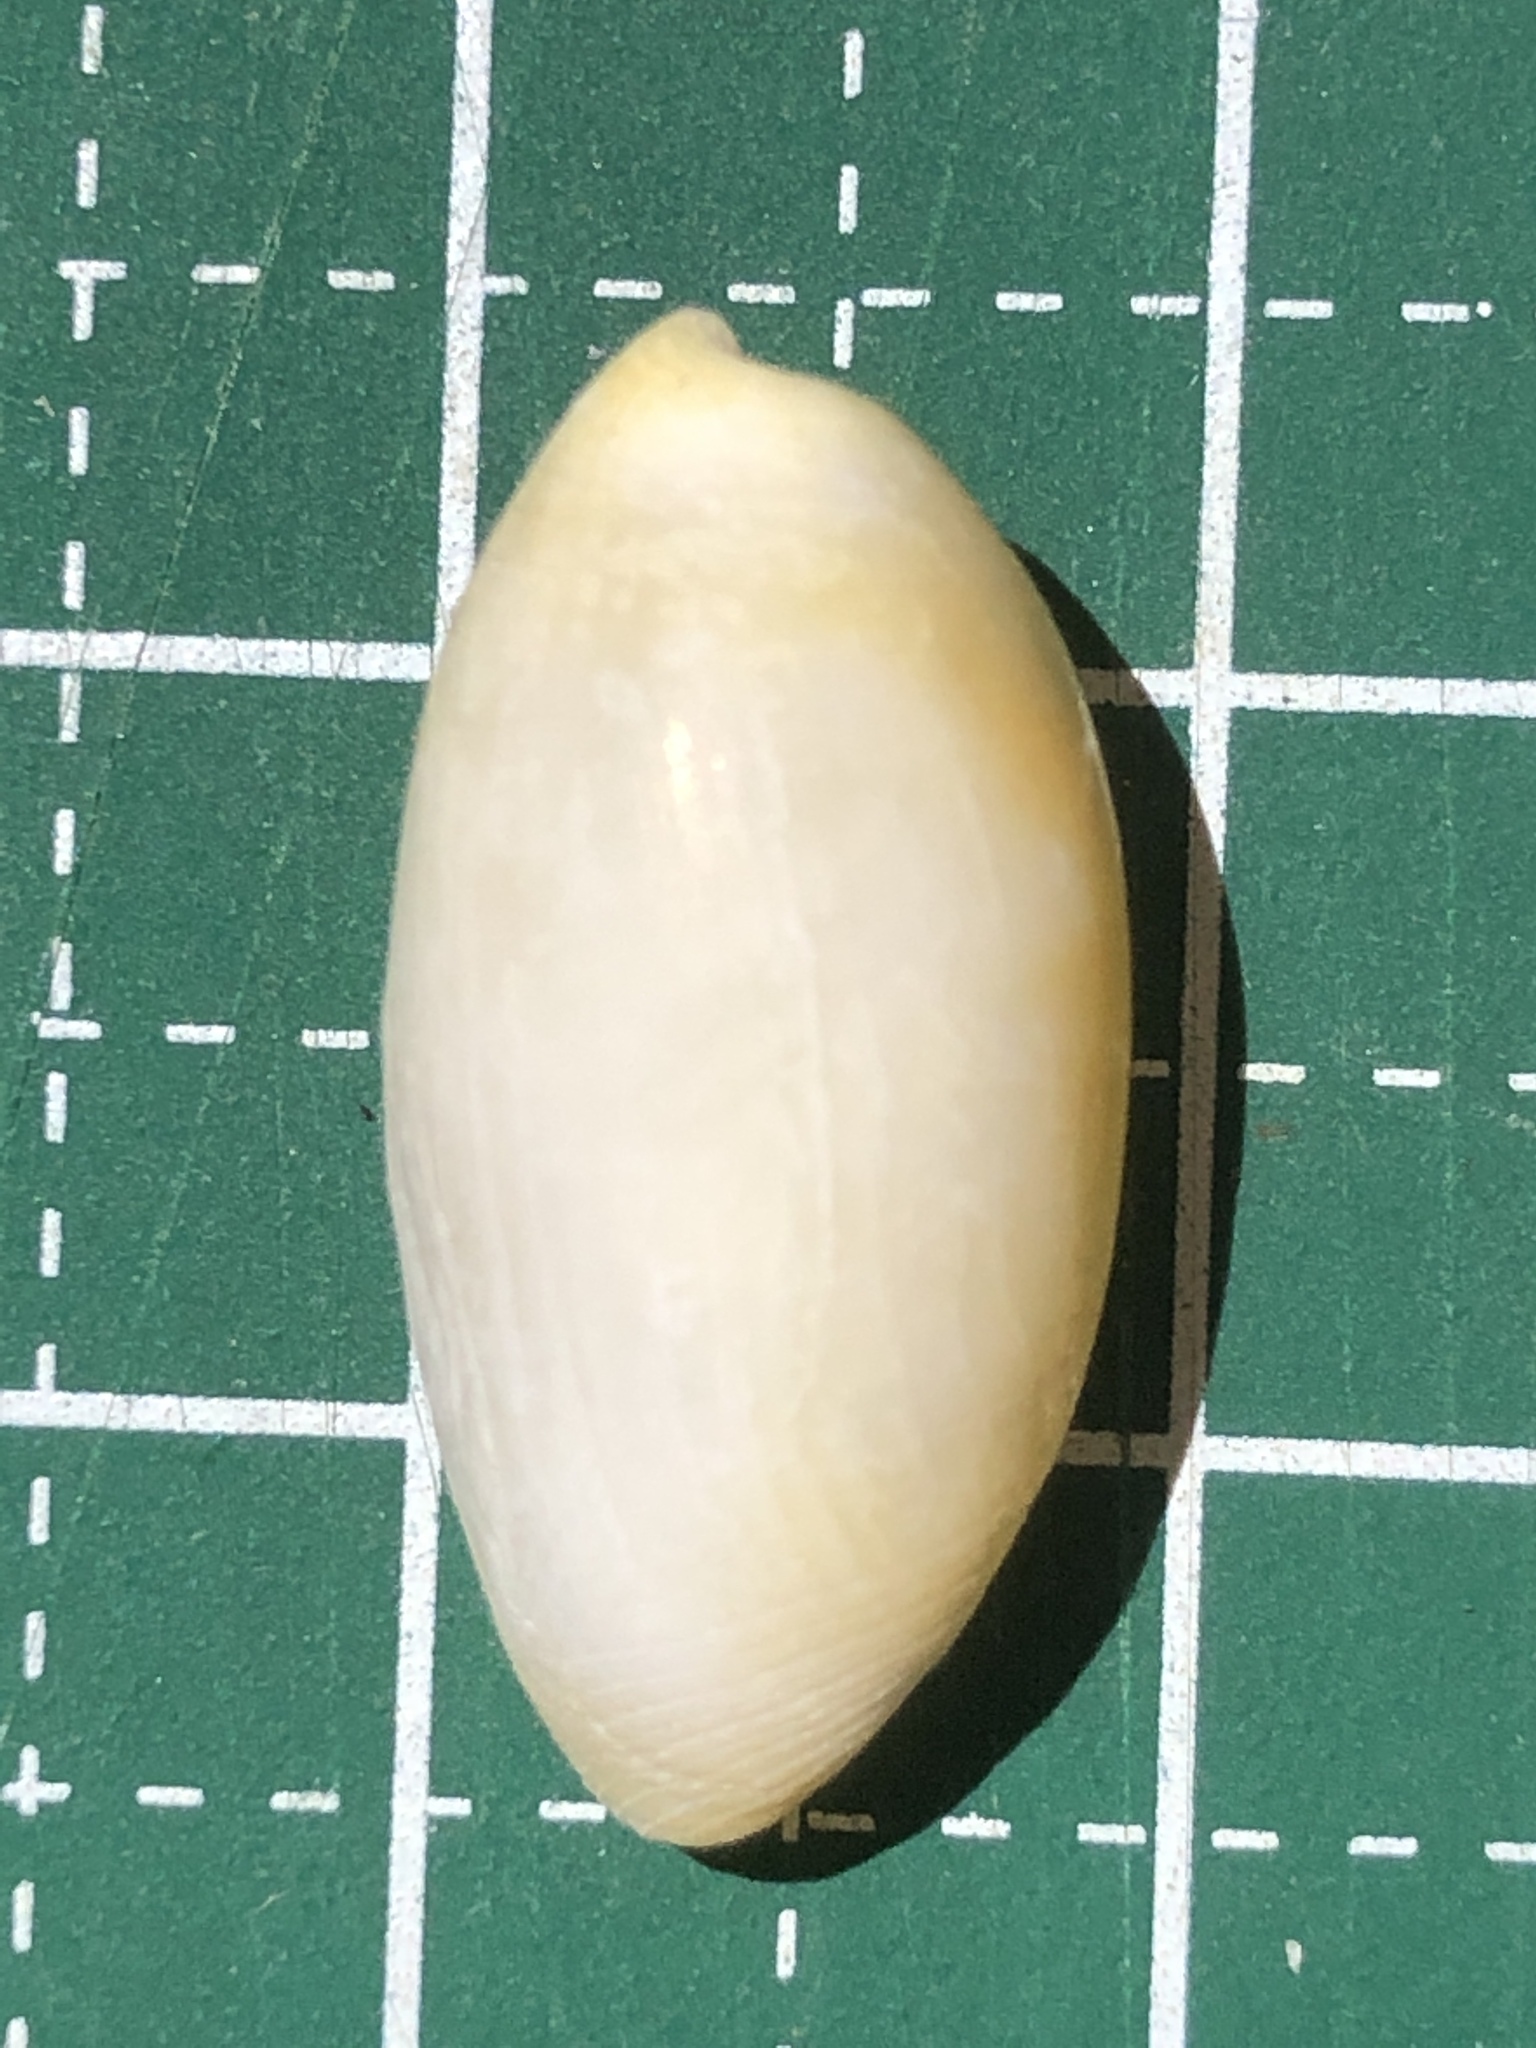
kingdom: Animalia
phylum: Mollusca
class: Gastropoda
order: Cephalaspidea
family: Haminoeidae
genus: Aliculastrum
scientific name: Aliculastrum cylindricum
